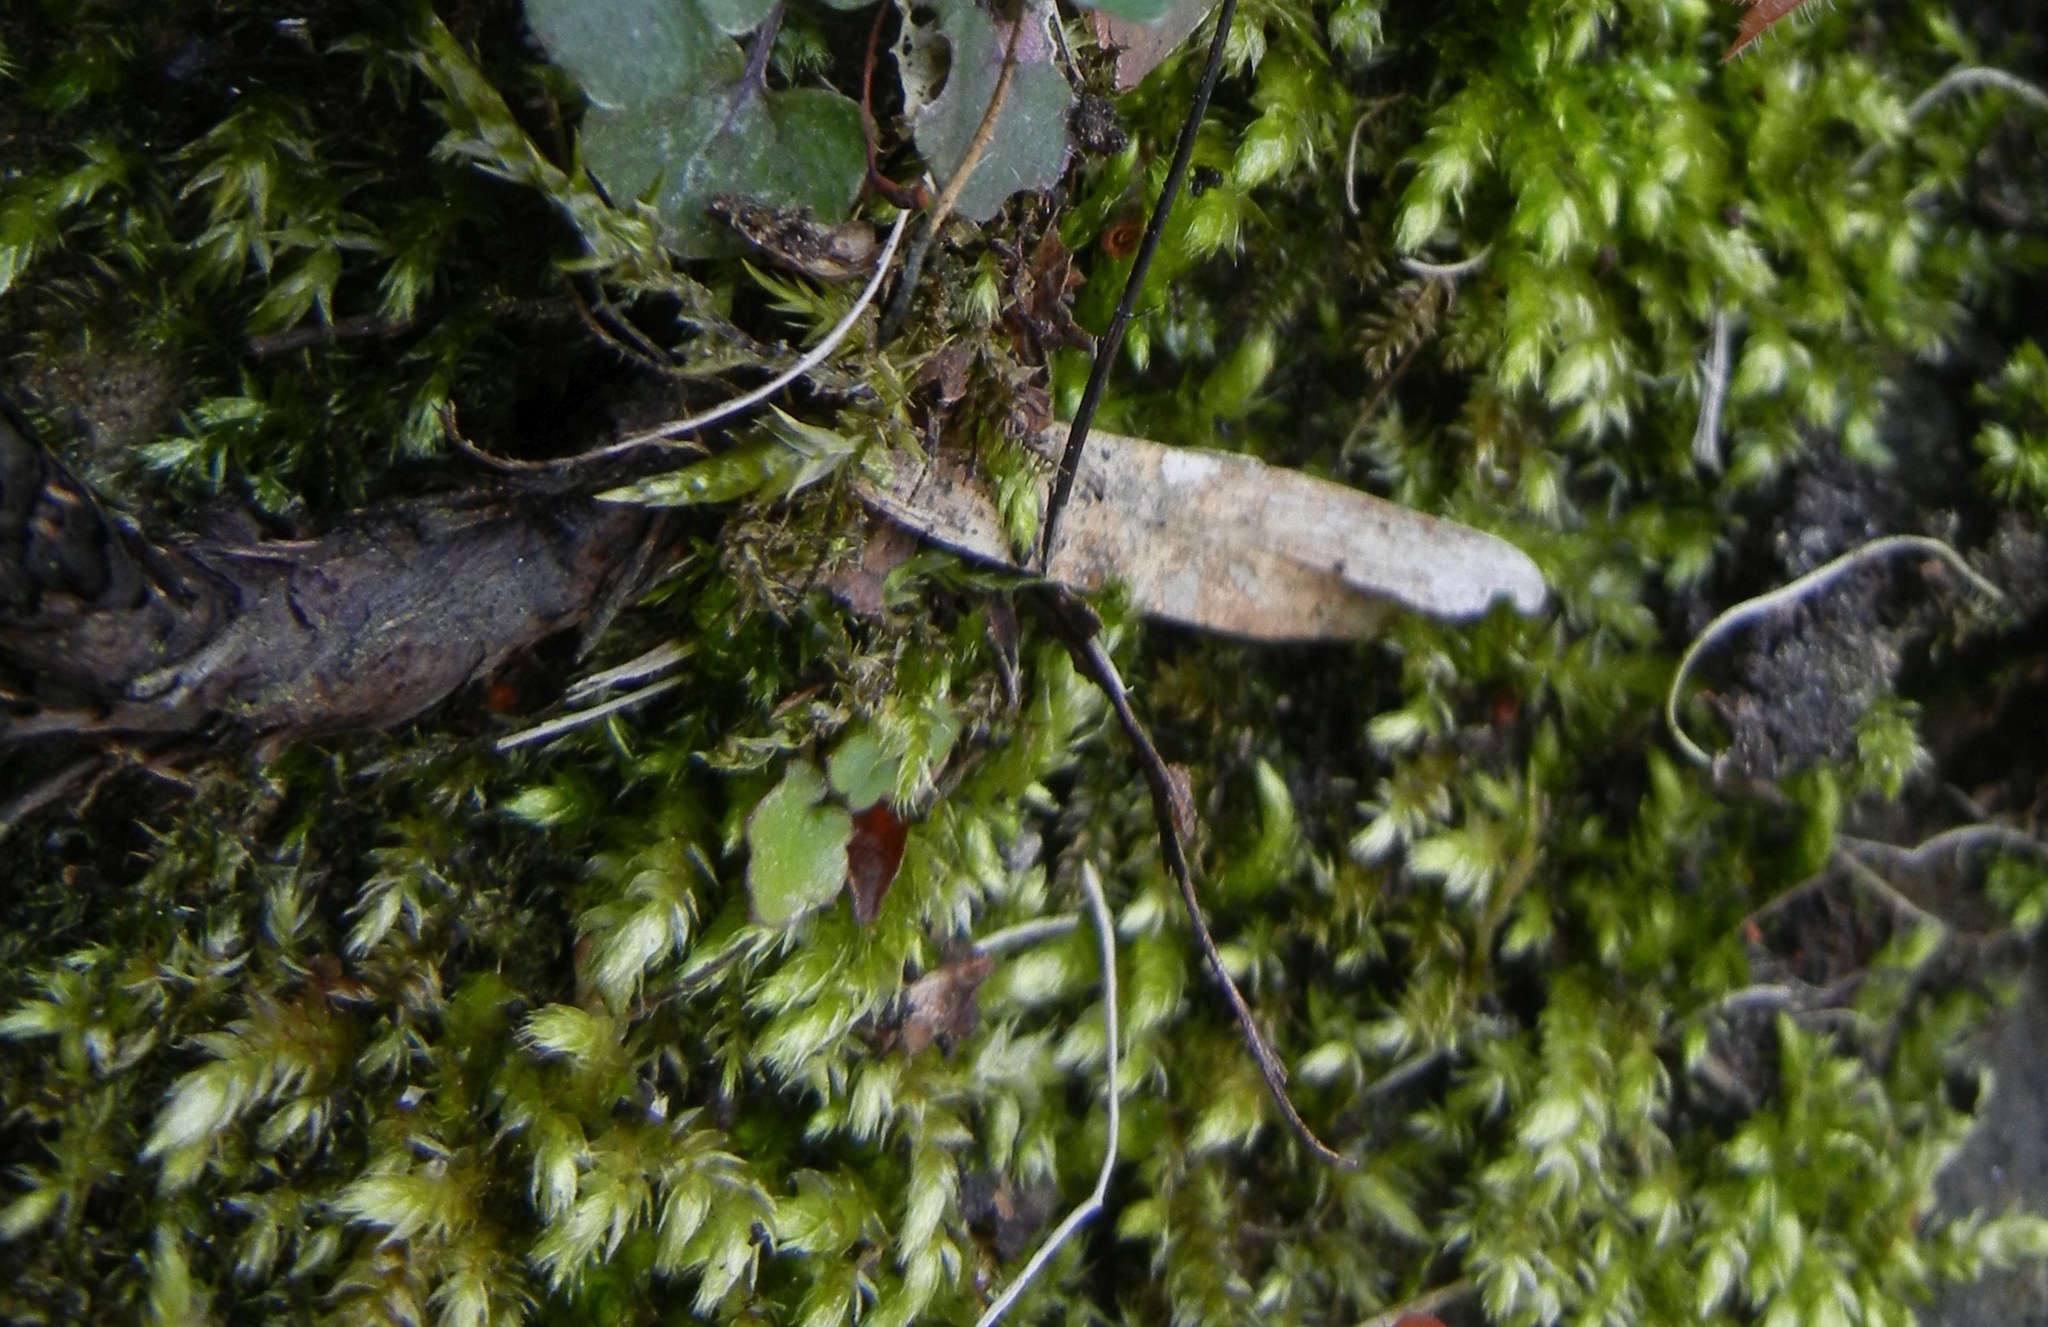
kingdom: Plantae
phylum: Bryophyta
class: Bryopsida
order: Hypnales
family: Brachytheciaceae
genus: Brachythecium
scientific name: Brachythecium rutabulum
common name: Rough-stalked feather-moss
